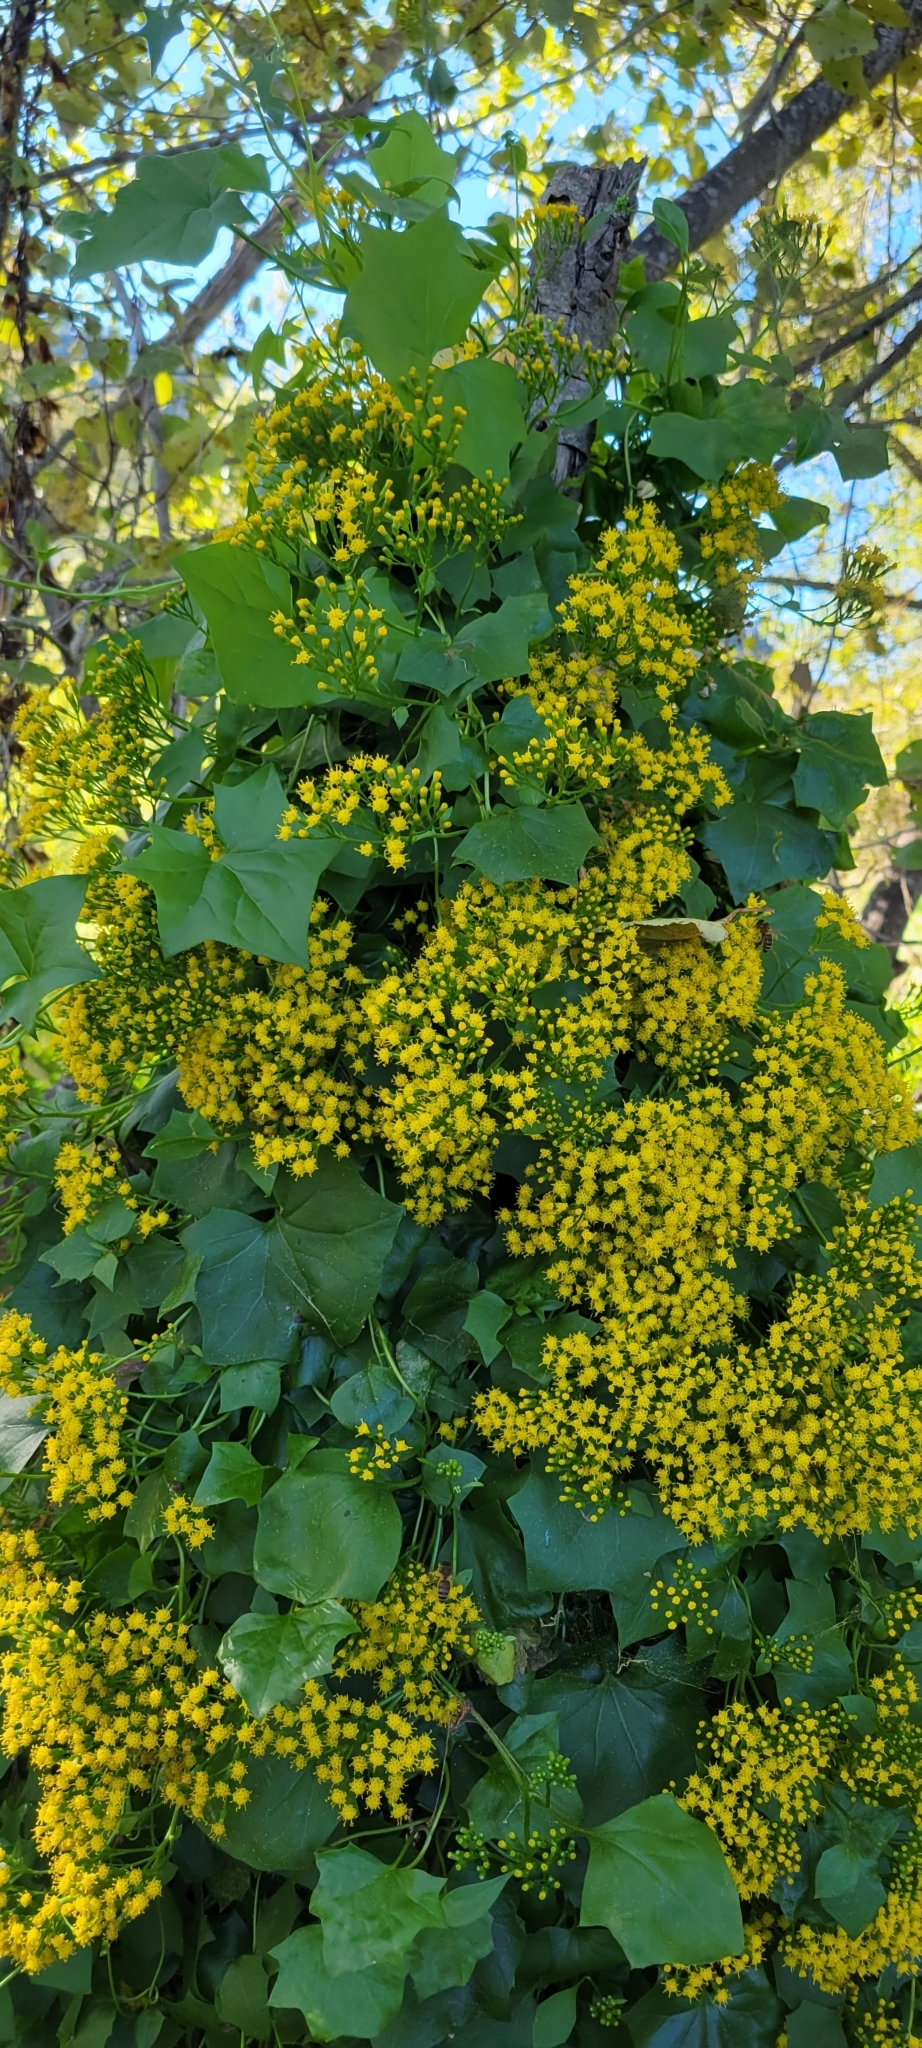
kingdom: Plantae
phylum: Tracheophyta
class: Magnoliopsida
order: Asterales
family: Asteraceae
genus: Delairea
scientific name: Delairea odorata
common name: Cape-ivy
